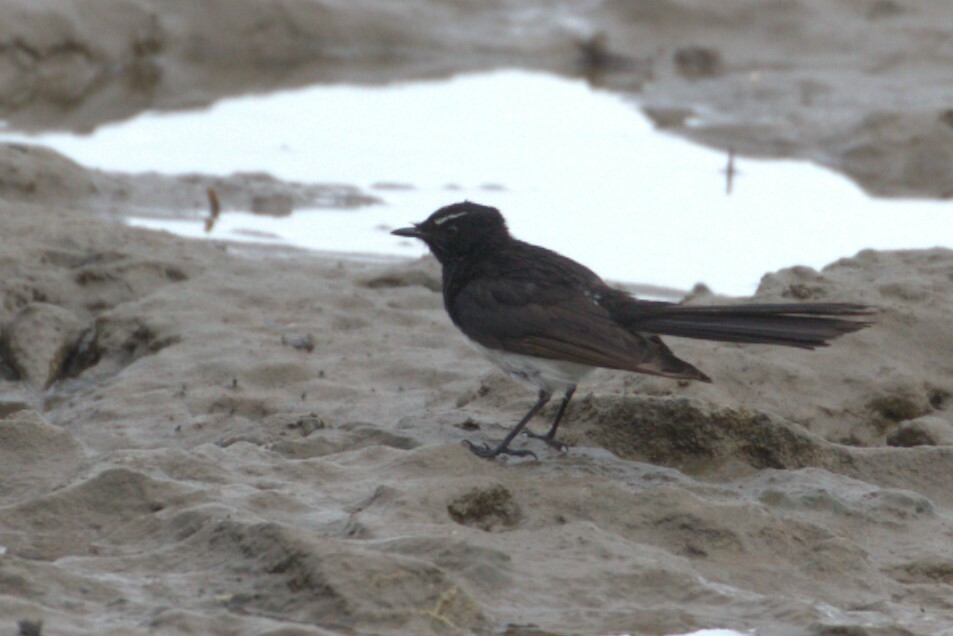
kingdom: Animalia
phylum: Chordata
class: Aves
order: Passeriformes
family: Rhipiduridae
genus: Rhipidura
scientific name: Rhipidura leucophrys
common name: Willie wagtail
